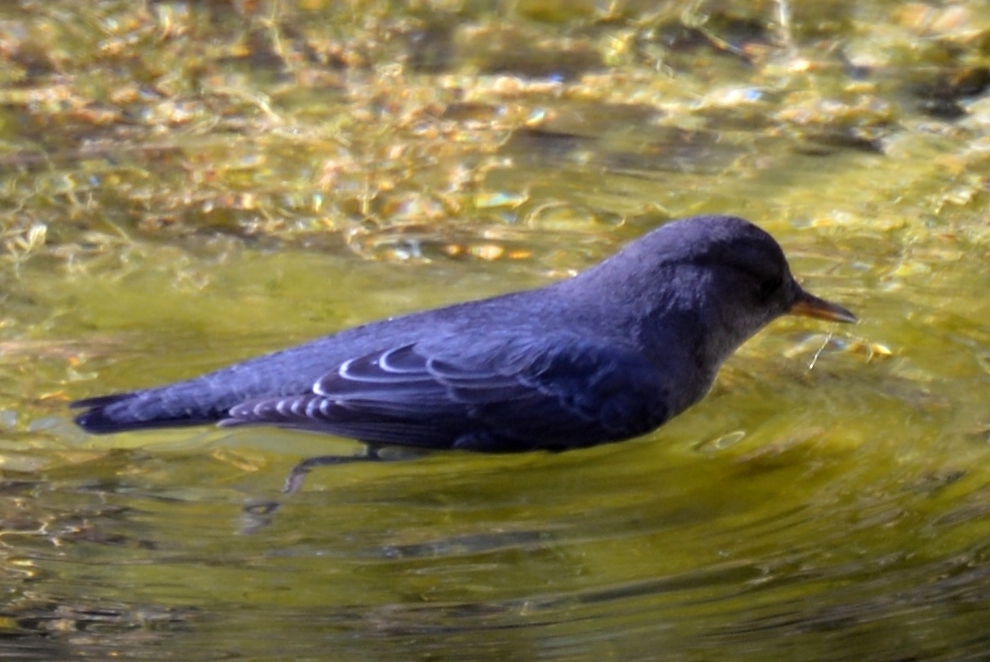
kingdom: Animalia
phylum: Chordata
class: Aves
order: Passeriformes
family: Cinclidae
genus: Cinclus
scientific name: Cinclus mexicanus
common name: American dipper
